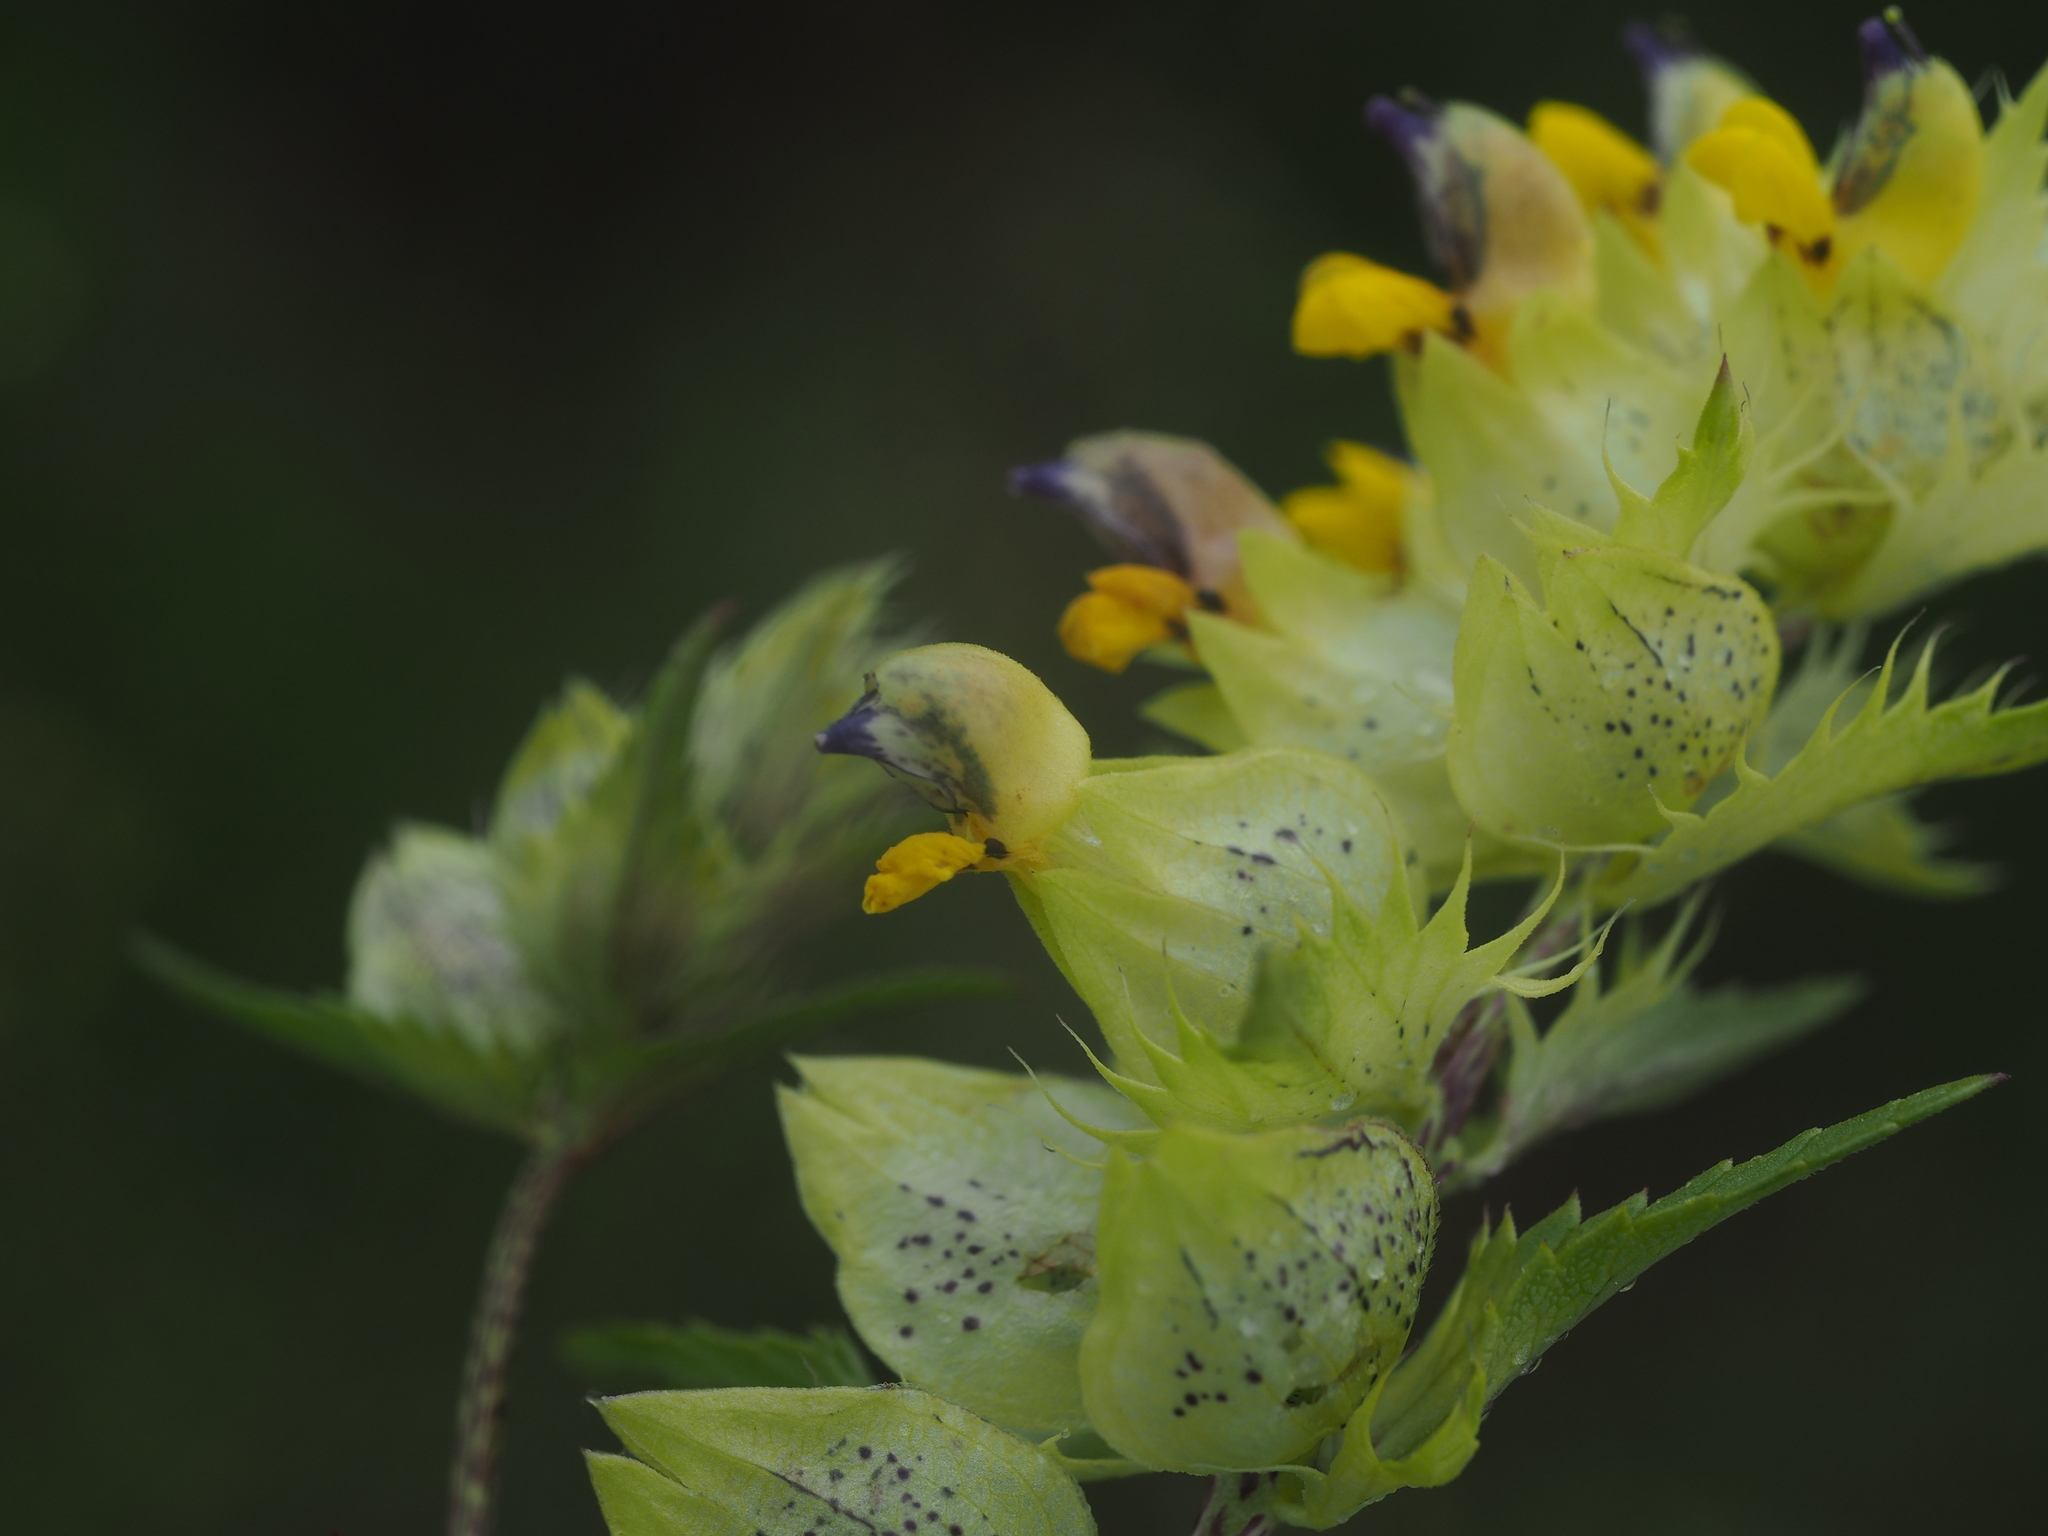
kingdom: Plantae
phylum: Tracheophyta
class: Magnoliopsida
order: Lamiales
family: Orobanchaceae
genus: Rhinanthus
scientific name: Rhinanthus glacialis
